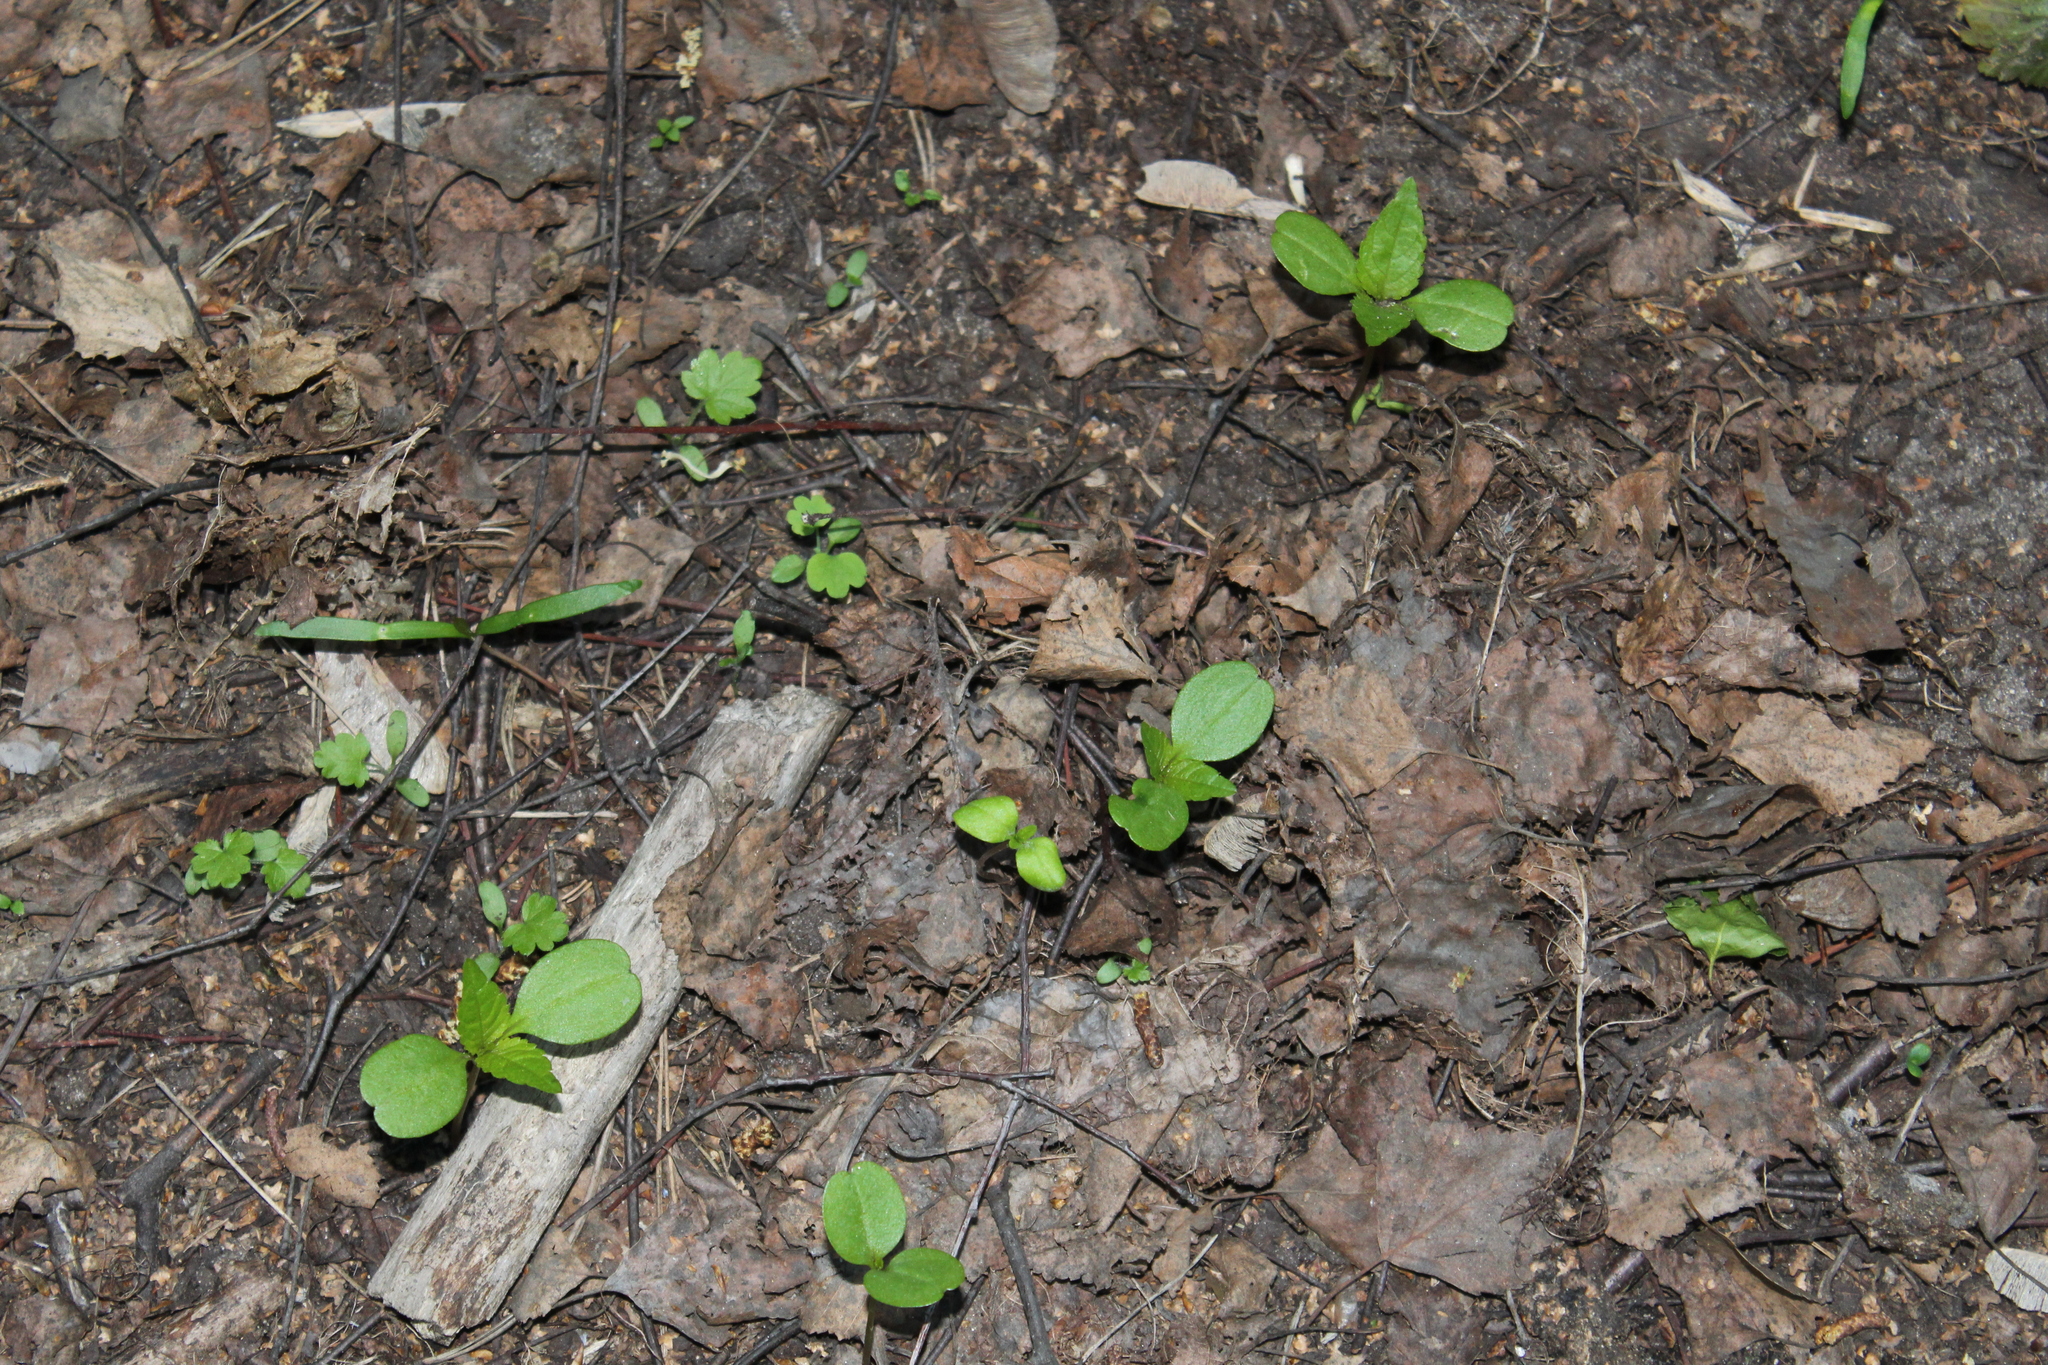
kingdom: Plantae
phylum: Tracheophyta
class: Magnoliopsida
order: Ericales
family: Balsaminaceae
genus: Impatiens
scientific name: Impatiens parviflora
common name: Small balsam
